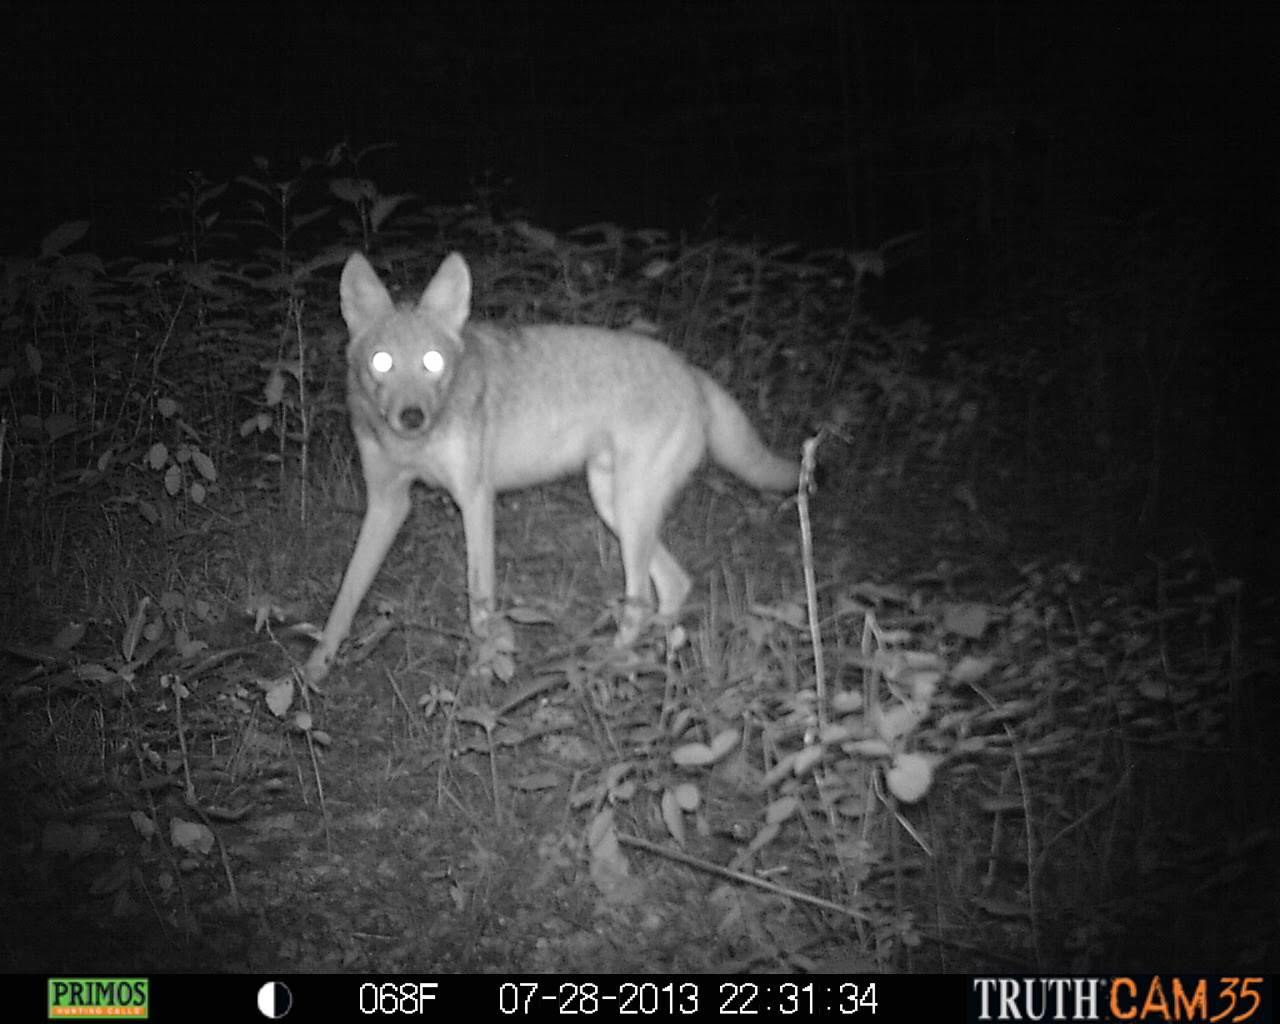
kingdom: Animalia
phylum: Chordata
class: Mammalia
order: Carnivora
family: Canidae
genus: Canis
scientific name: Canis latrans
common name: Coyote
